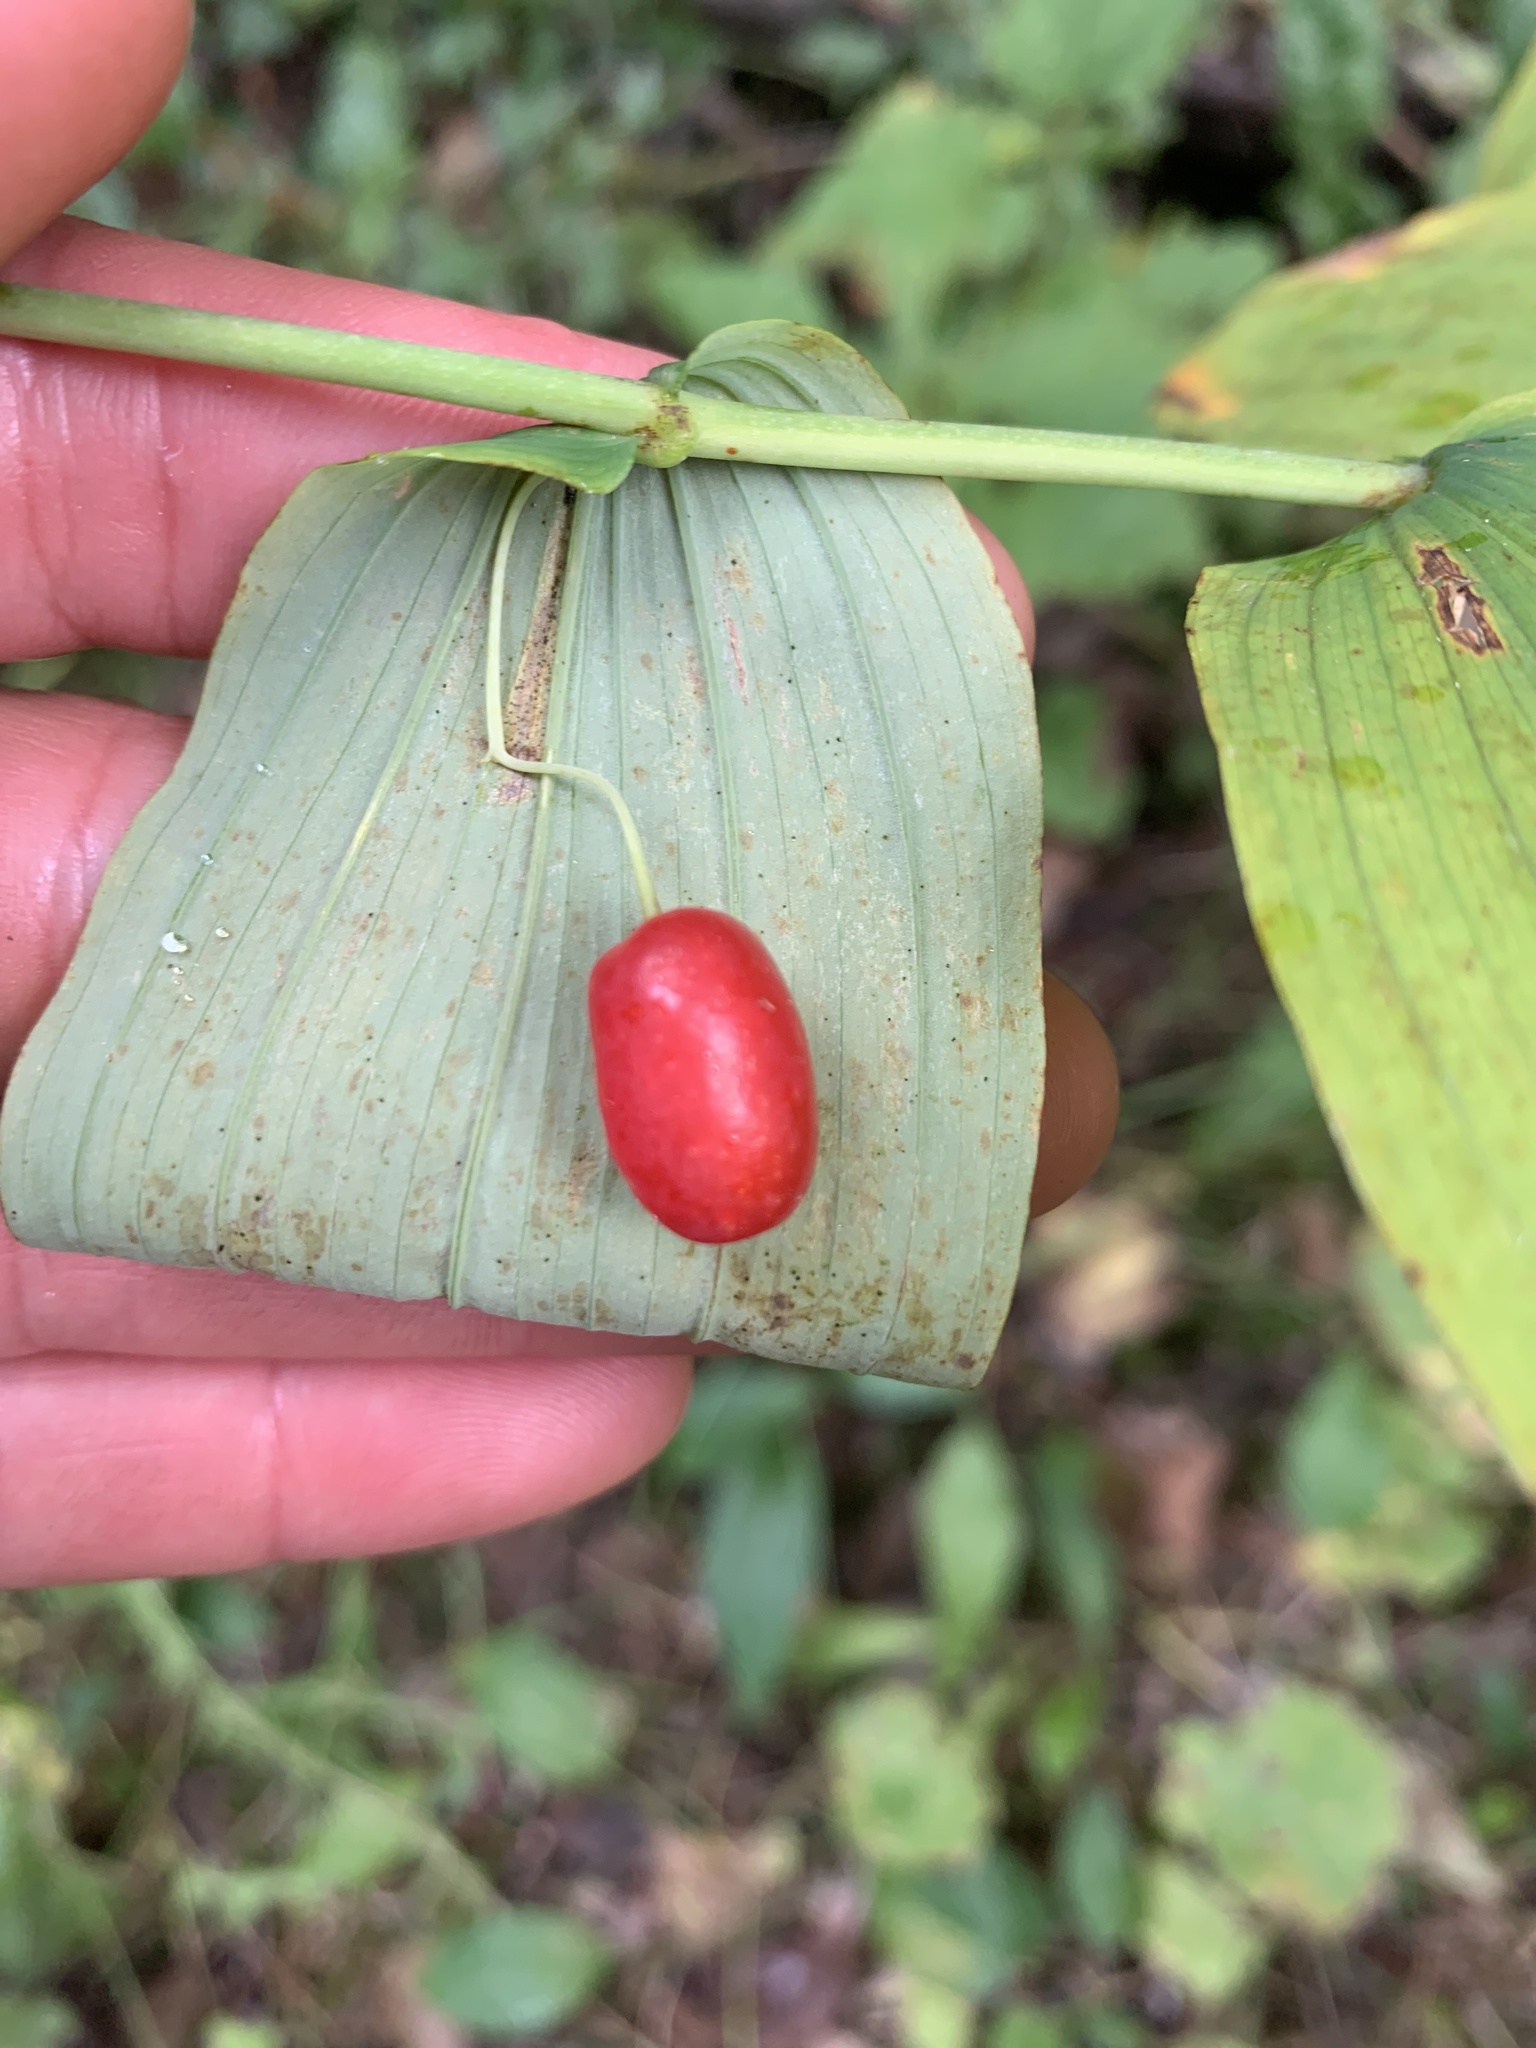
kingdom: Plantae
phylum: Tracheophyta
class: Liliopsida
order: Liliales
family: Liliaceae
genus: Streptopus
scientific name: Streptopus amplexifolius
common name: Clasp twisted stalk
